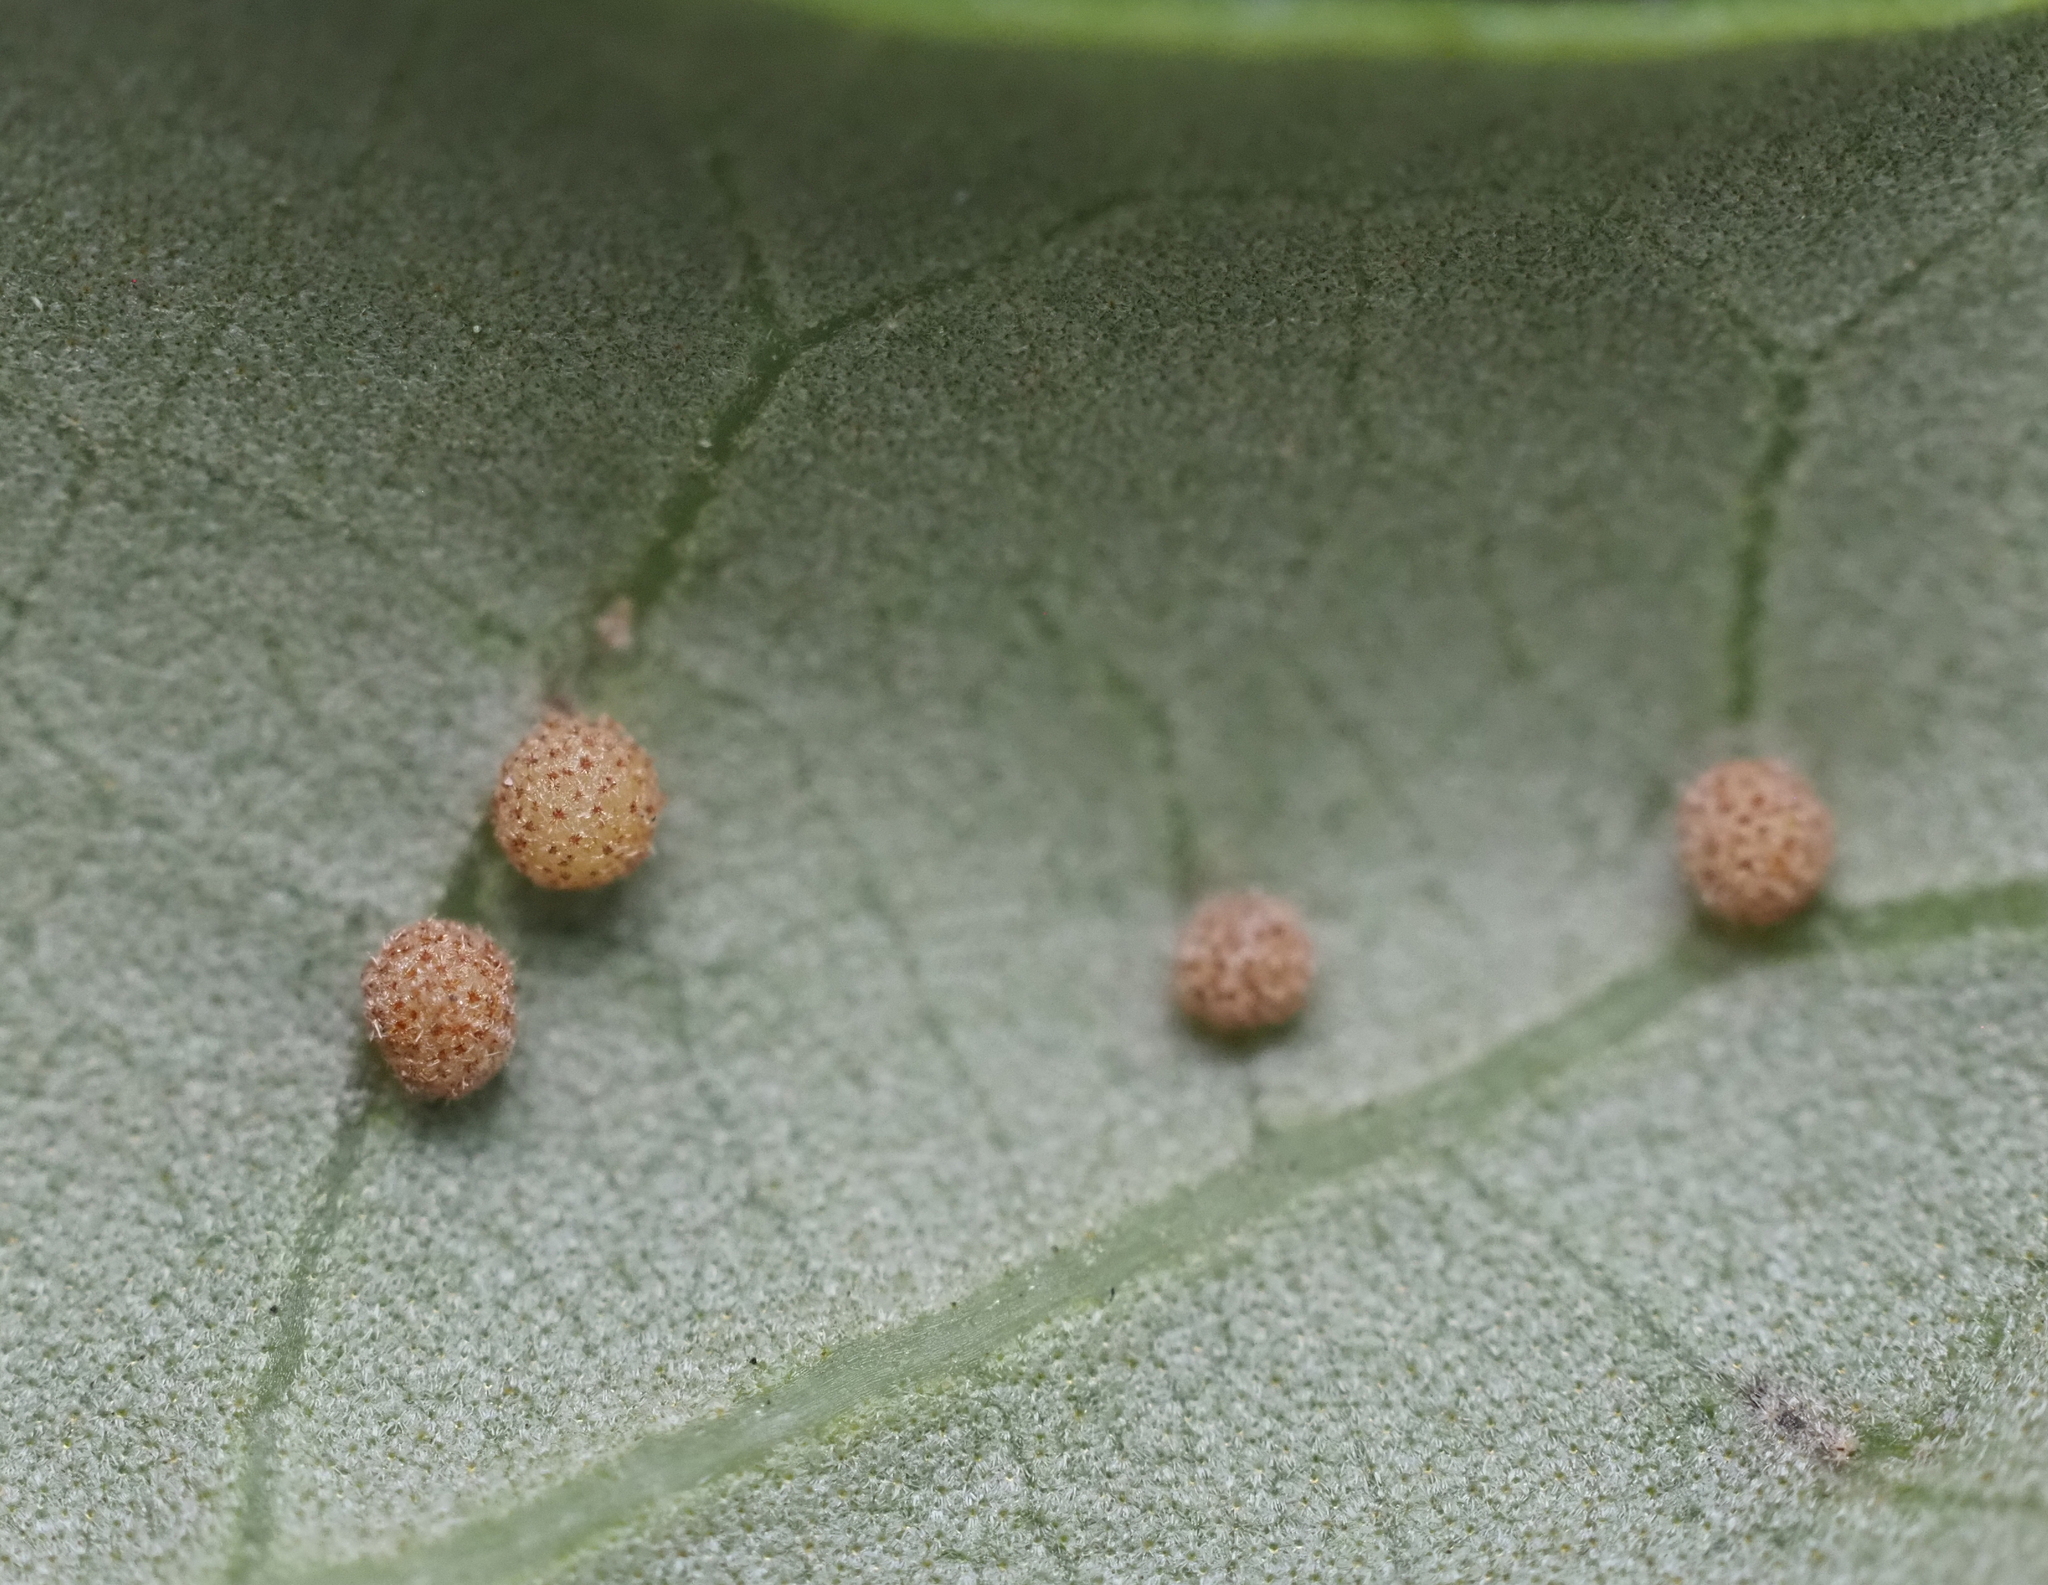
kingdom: Animalia
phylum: Arthropoda
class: Insecta
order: Hymenoptera
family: Cynipidae
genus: Belonocnema
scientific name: Belonocnema kinseyi
